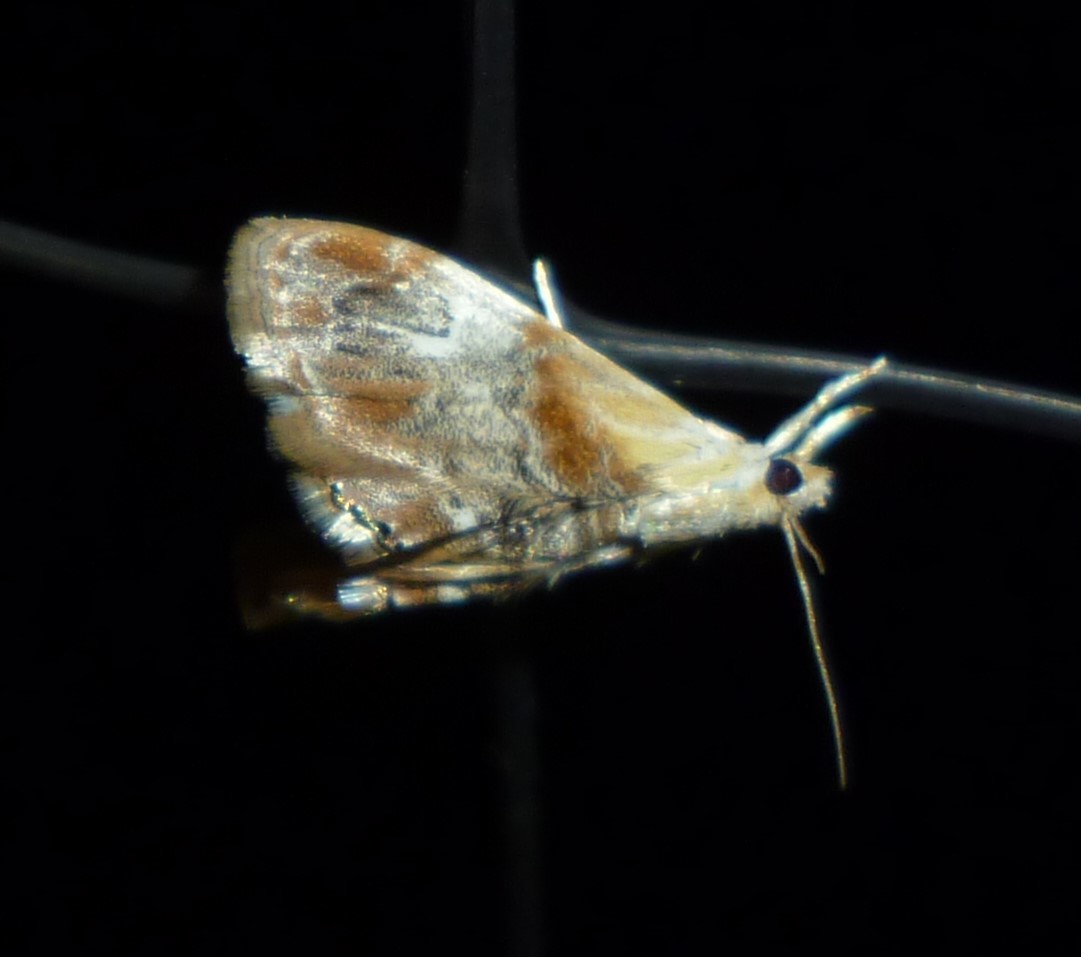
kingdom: Animalia
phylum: Arthropoda
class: Insecta
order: Lepidoptera
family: Crambidae
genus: Dicymolomia
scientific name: Dicymolomia julianalis
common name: Julia's dicymolomia moth
